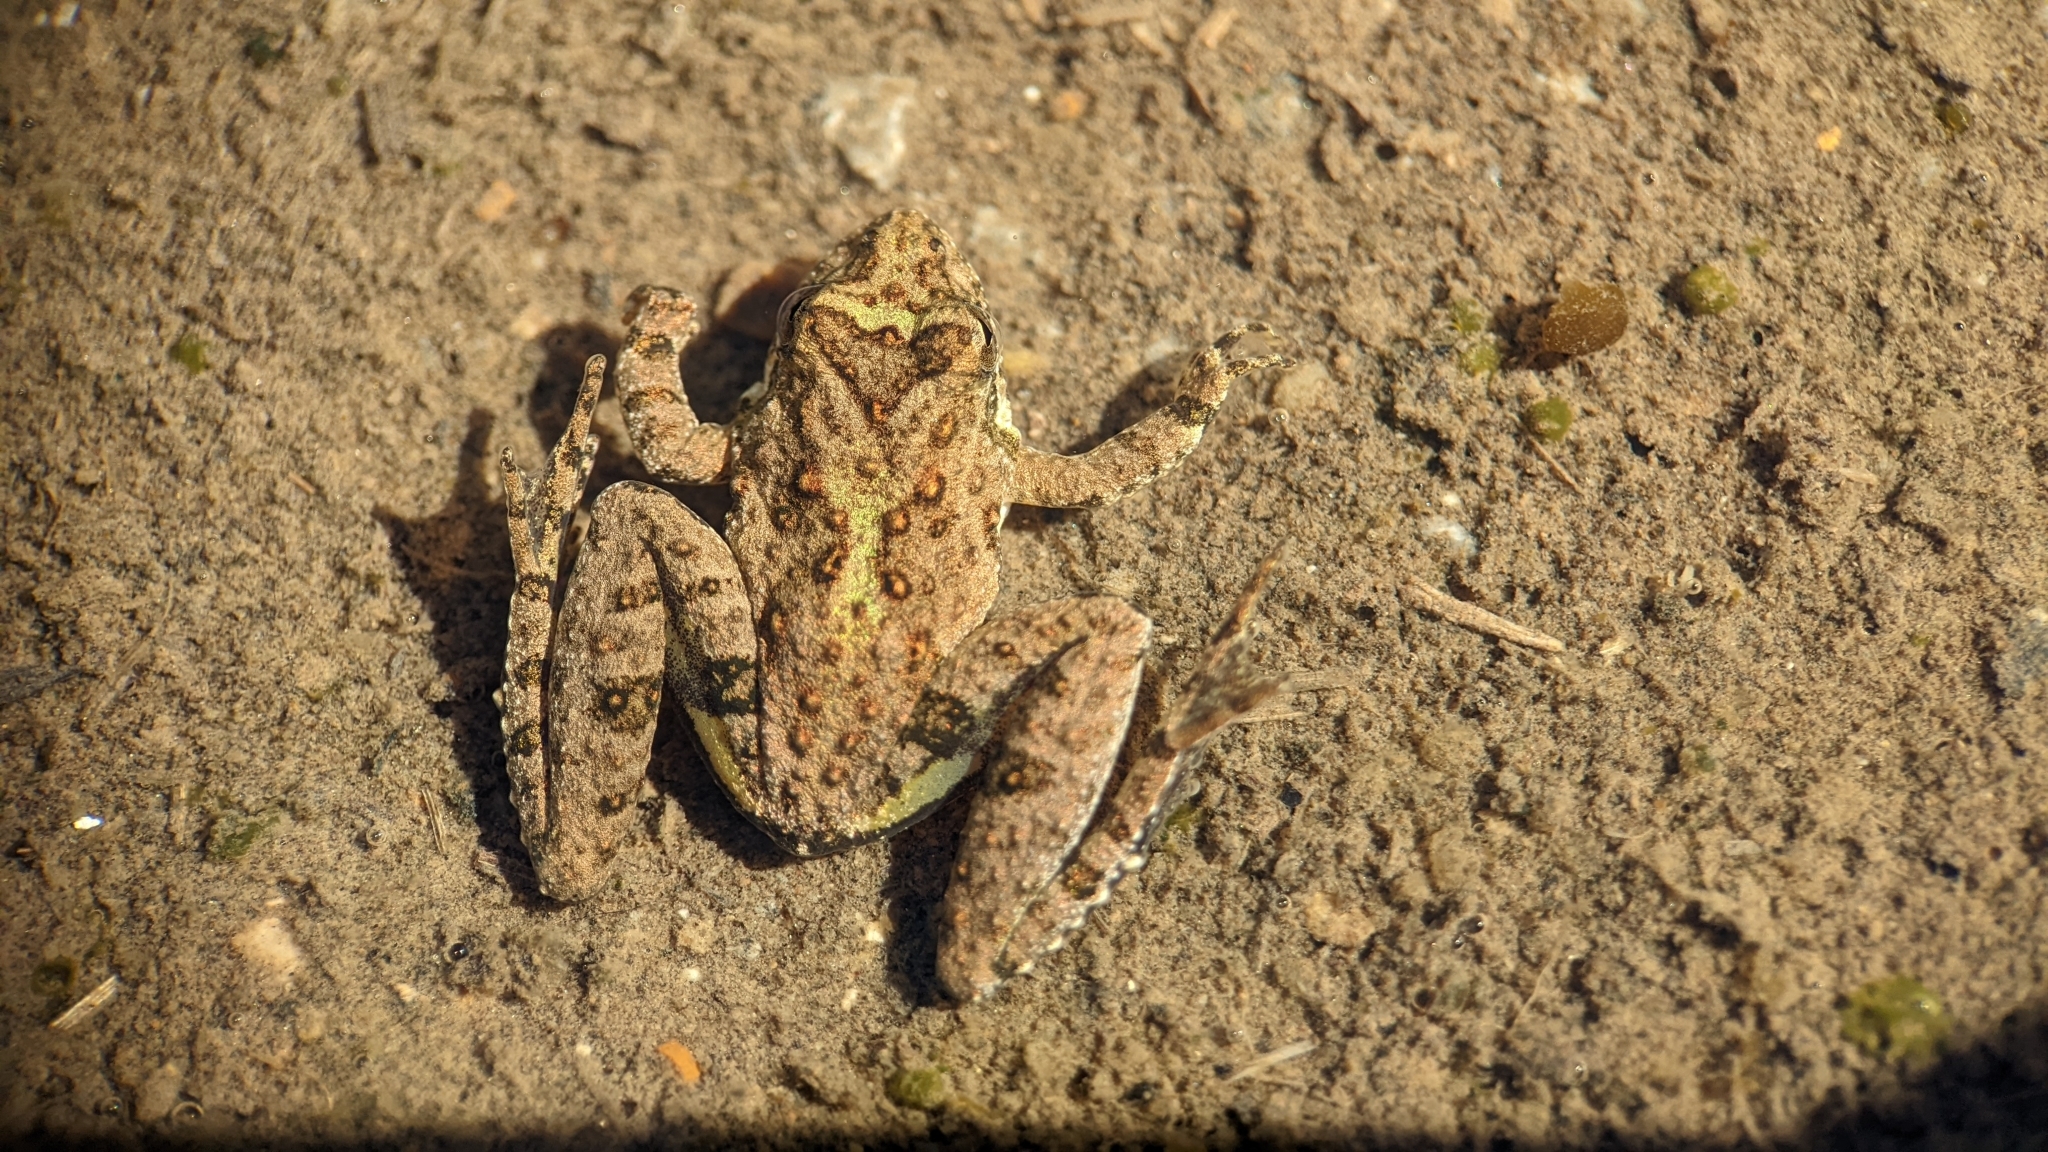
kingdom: Animalia
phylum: Chordata
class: Amphibia
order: Anura
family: Hylidae
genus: Acris
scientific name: Acris blanchardi
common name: Blanchard's cricket frog
